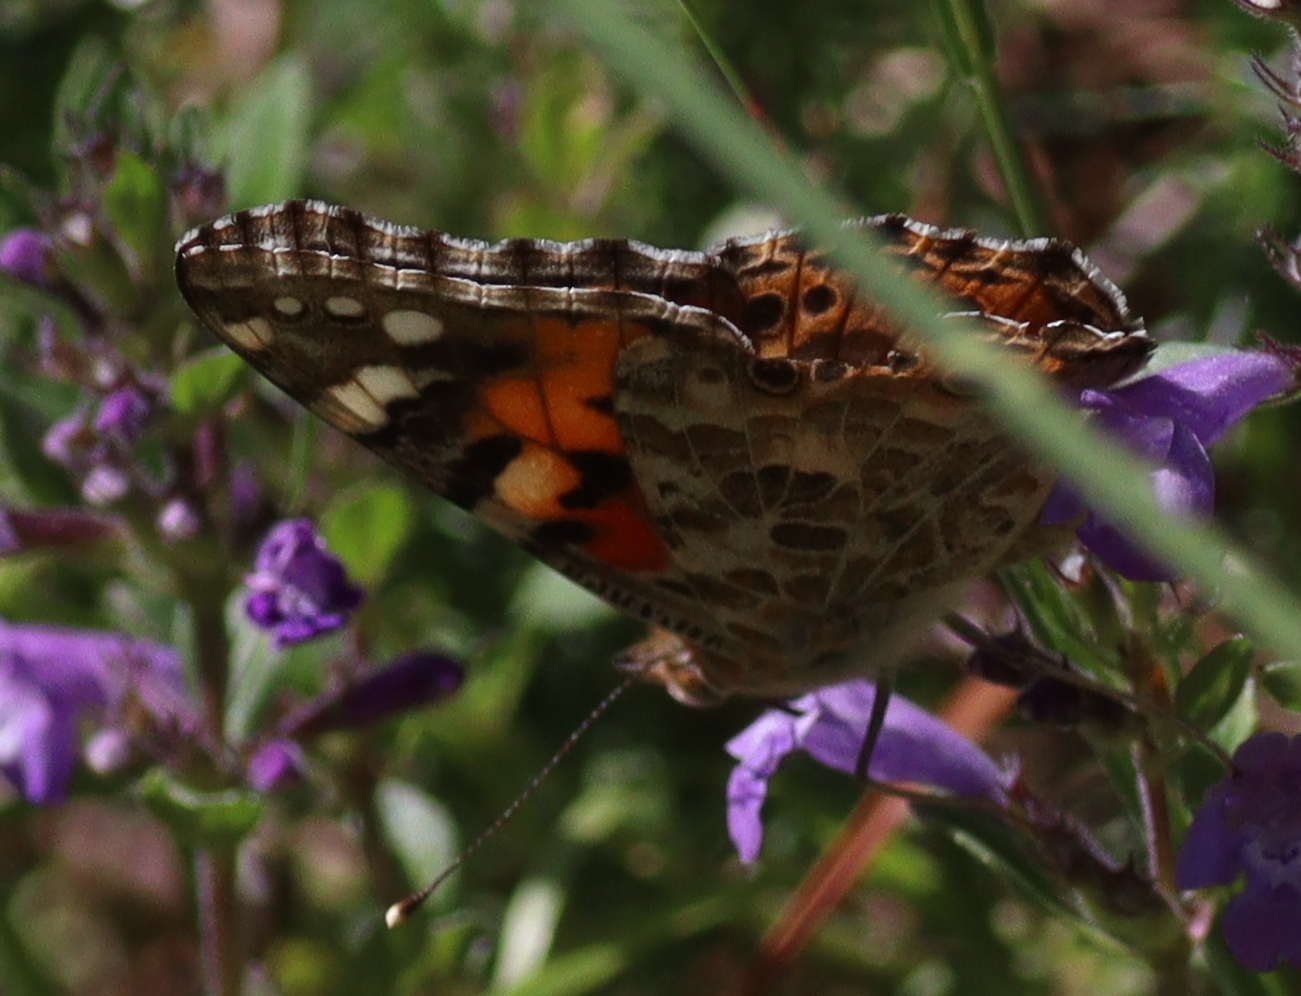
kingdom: Animalia
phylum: Arthropoda
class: Insecta
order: Lepidoptera
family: Nymphalidae
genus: Vanessa
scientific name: Vanessa cardui
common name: Painted lady
